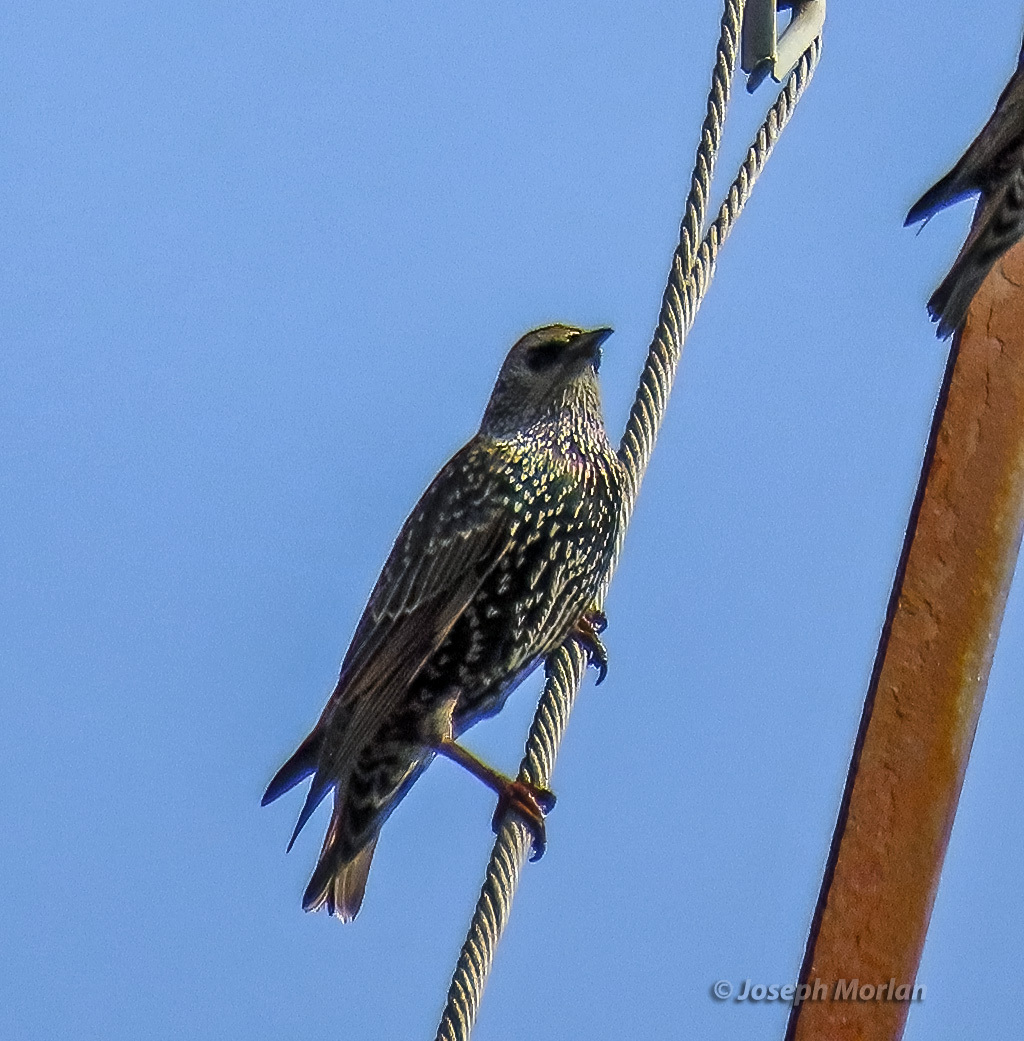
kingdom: Animalia
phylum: Chordata
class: Aves
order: Passeriformes
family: Sturnidae
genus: Sturnus
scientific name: Sturnus vulgaris
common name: Common starling
